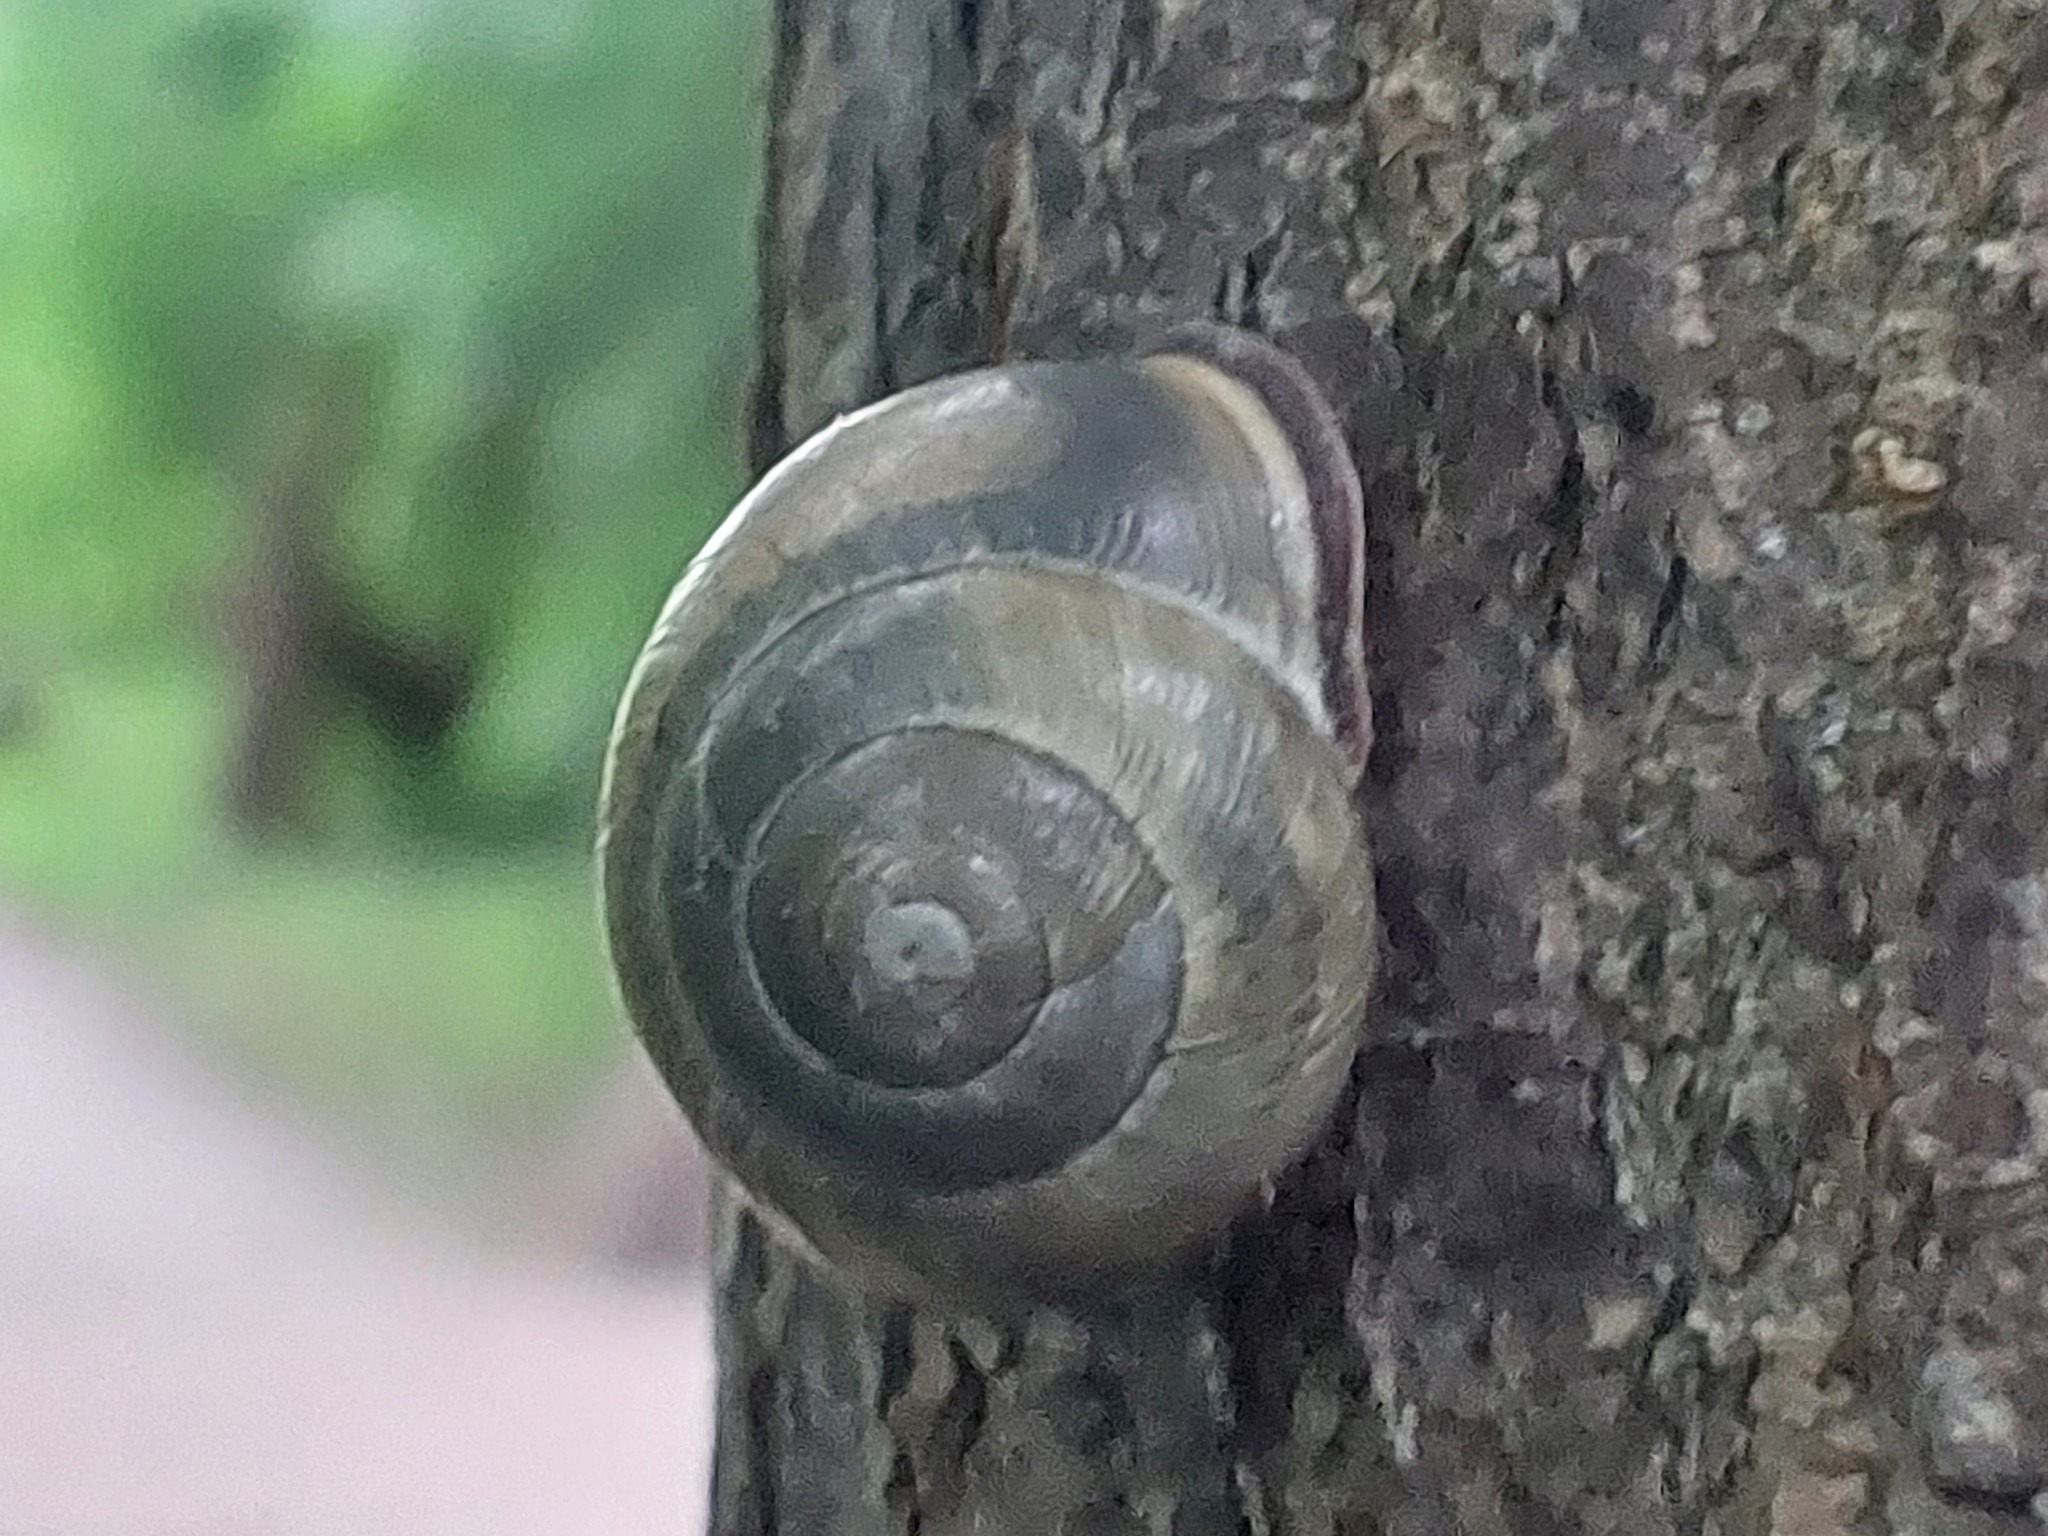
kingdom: Animalia
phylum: Mollusca
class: Gastropoda
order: Stylommatophora
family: Helicidae
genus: Cepaea
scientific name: Cepaea nemoralis
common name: Grovesnail
